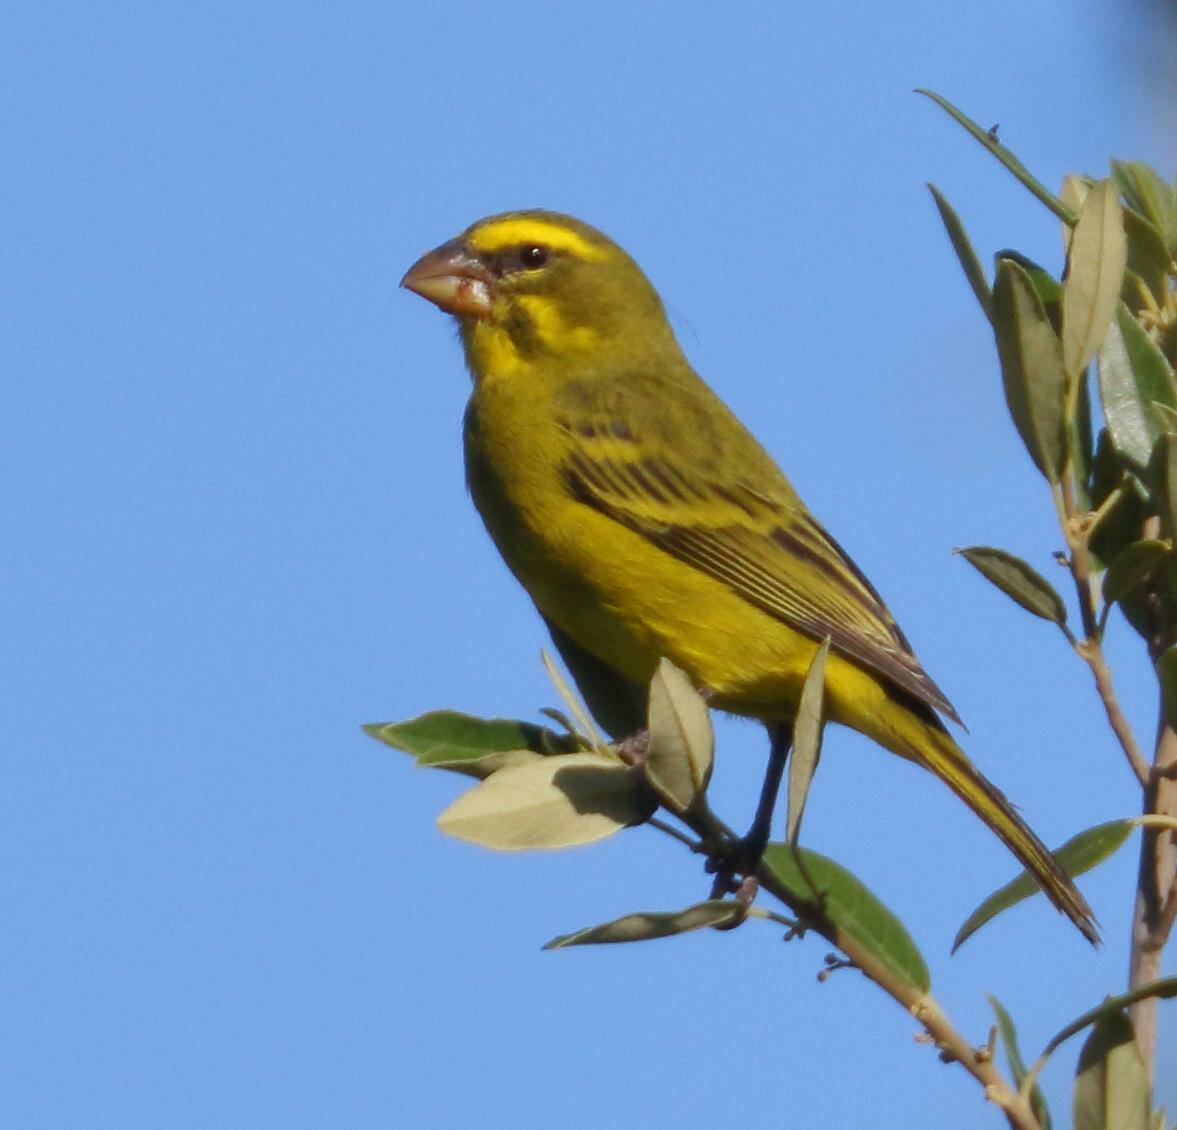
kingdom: Animalia
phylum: Chordata
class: Aves
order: Passeriformes
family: Fringillidae
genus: Crithagra
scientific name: Crithagra sulphurata
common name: Brimstone canary
